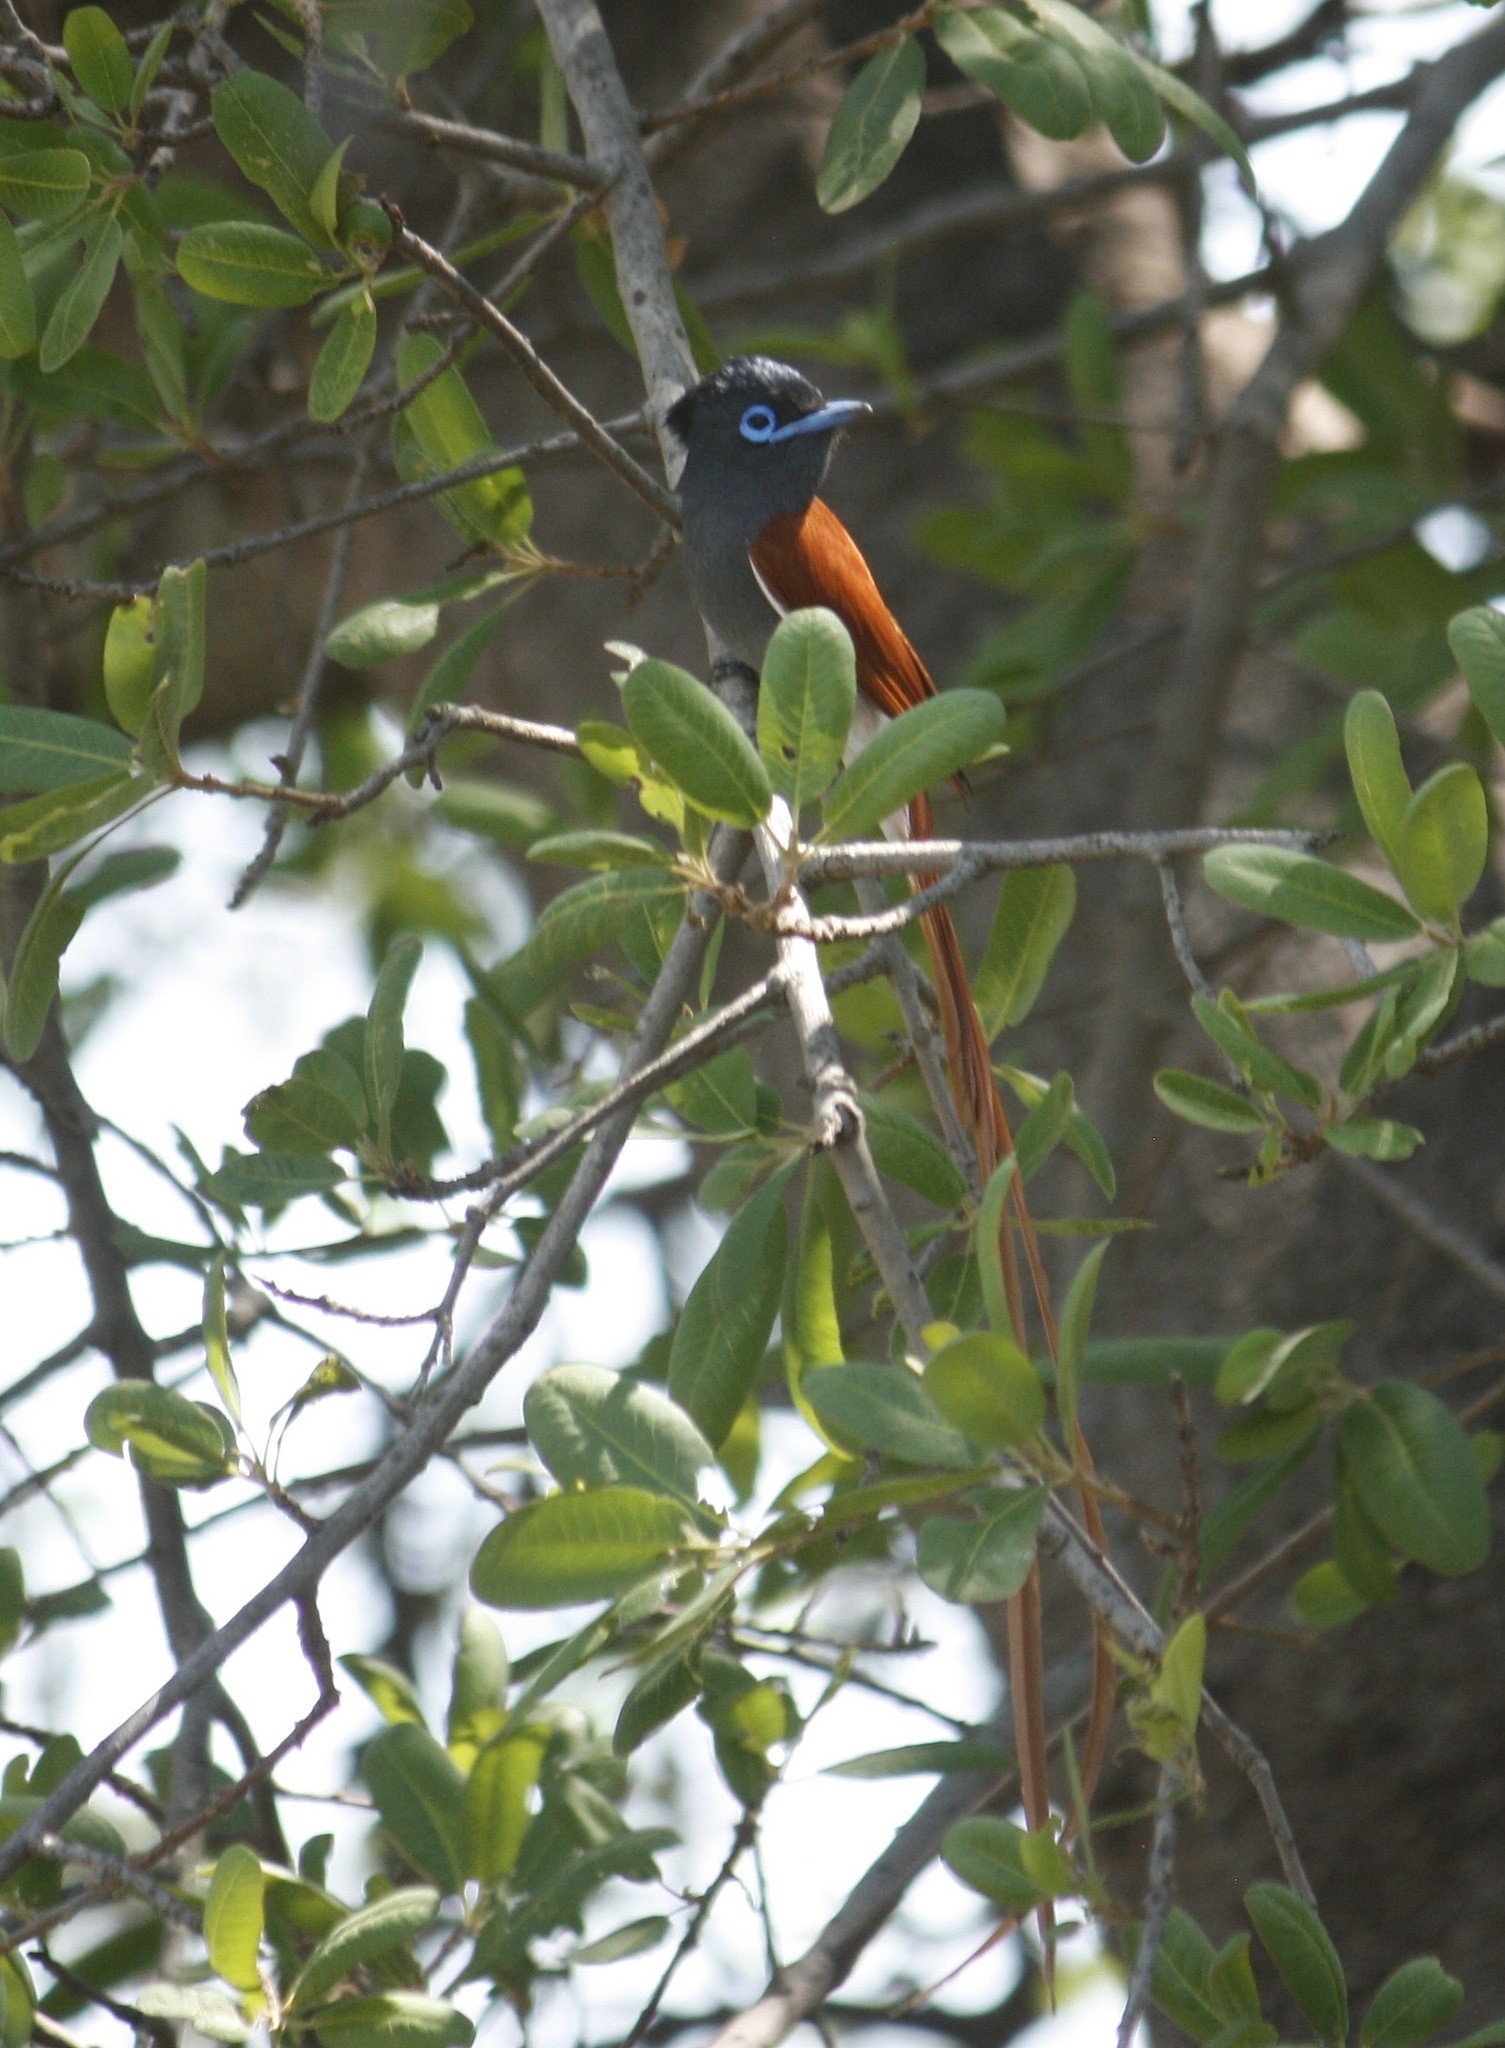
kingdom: Animalia
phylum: Chordata
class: Aves
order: Passeriformes
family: Monarchidae
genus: Terpsiphone
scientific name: Terpsiphone viridis
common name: African paradise flycatcher
